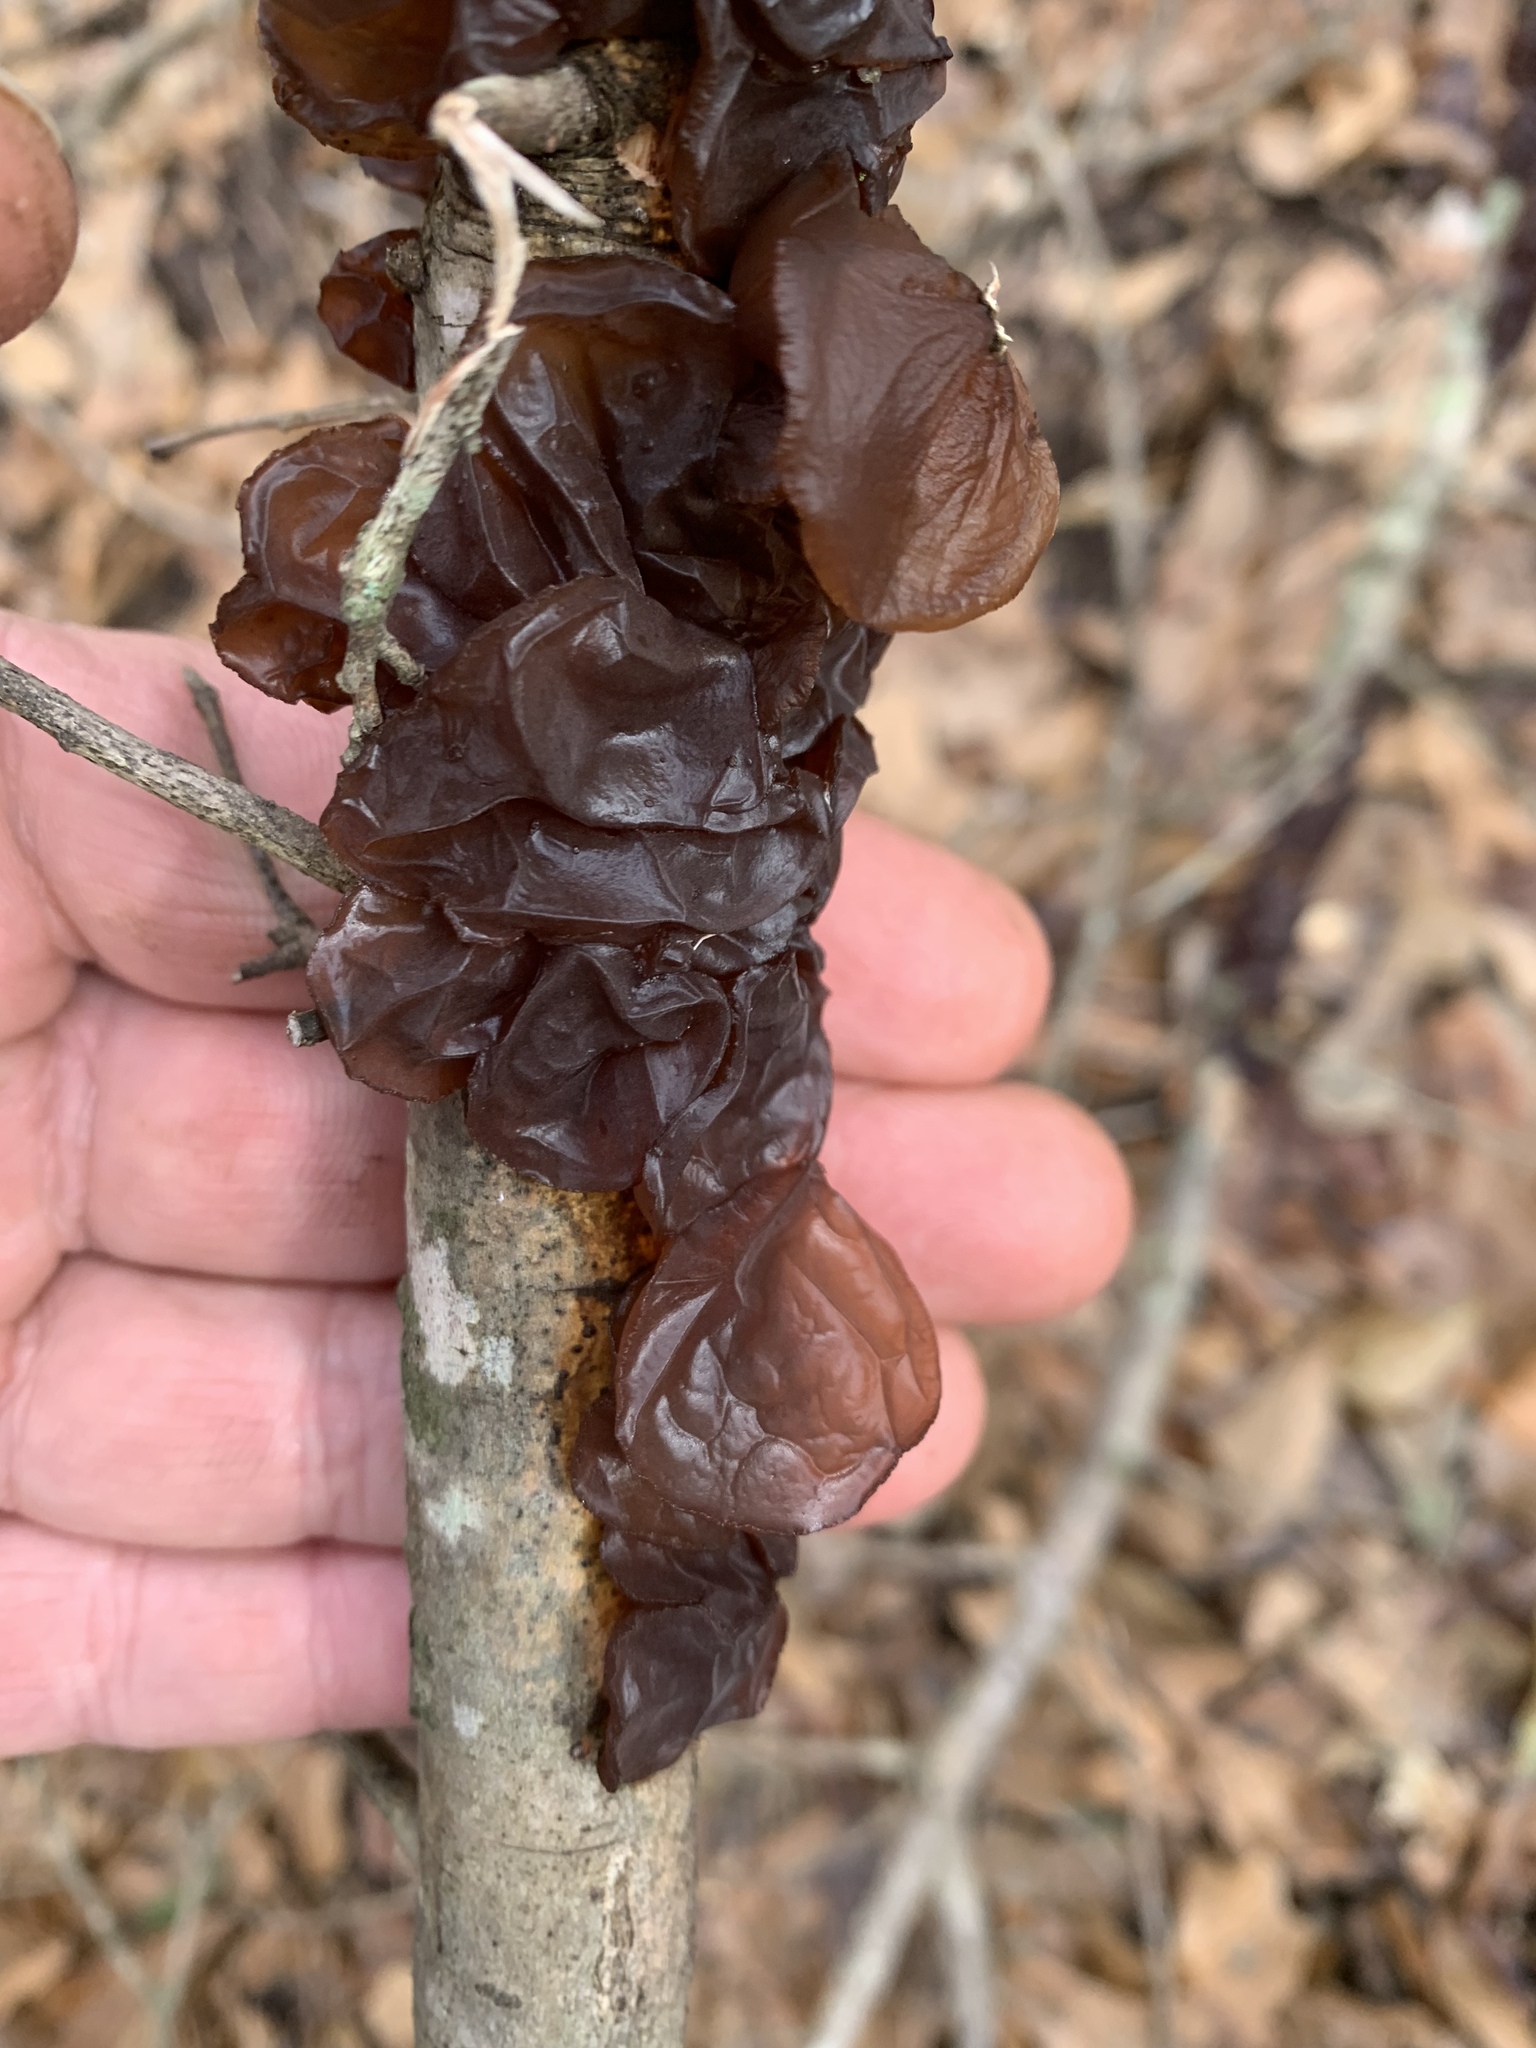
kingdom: Fungi
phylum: Basidiomycota
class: Agaricomycetes
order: Auriculariales
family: Auriculariaceae
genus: Exidia
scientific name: Exidia
